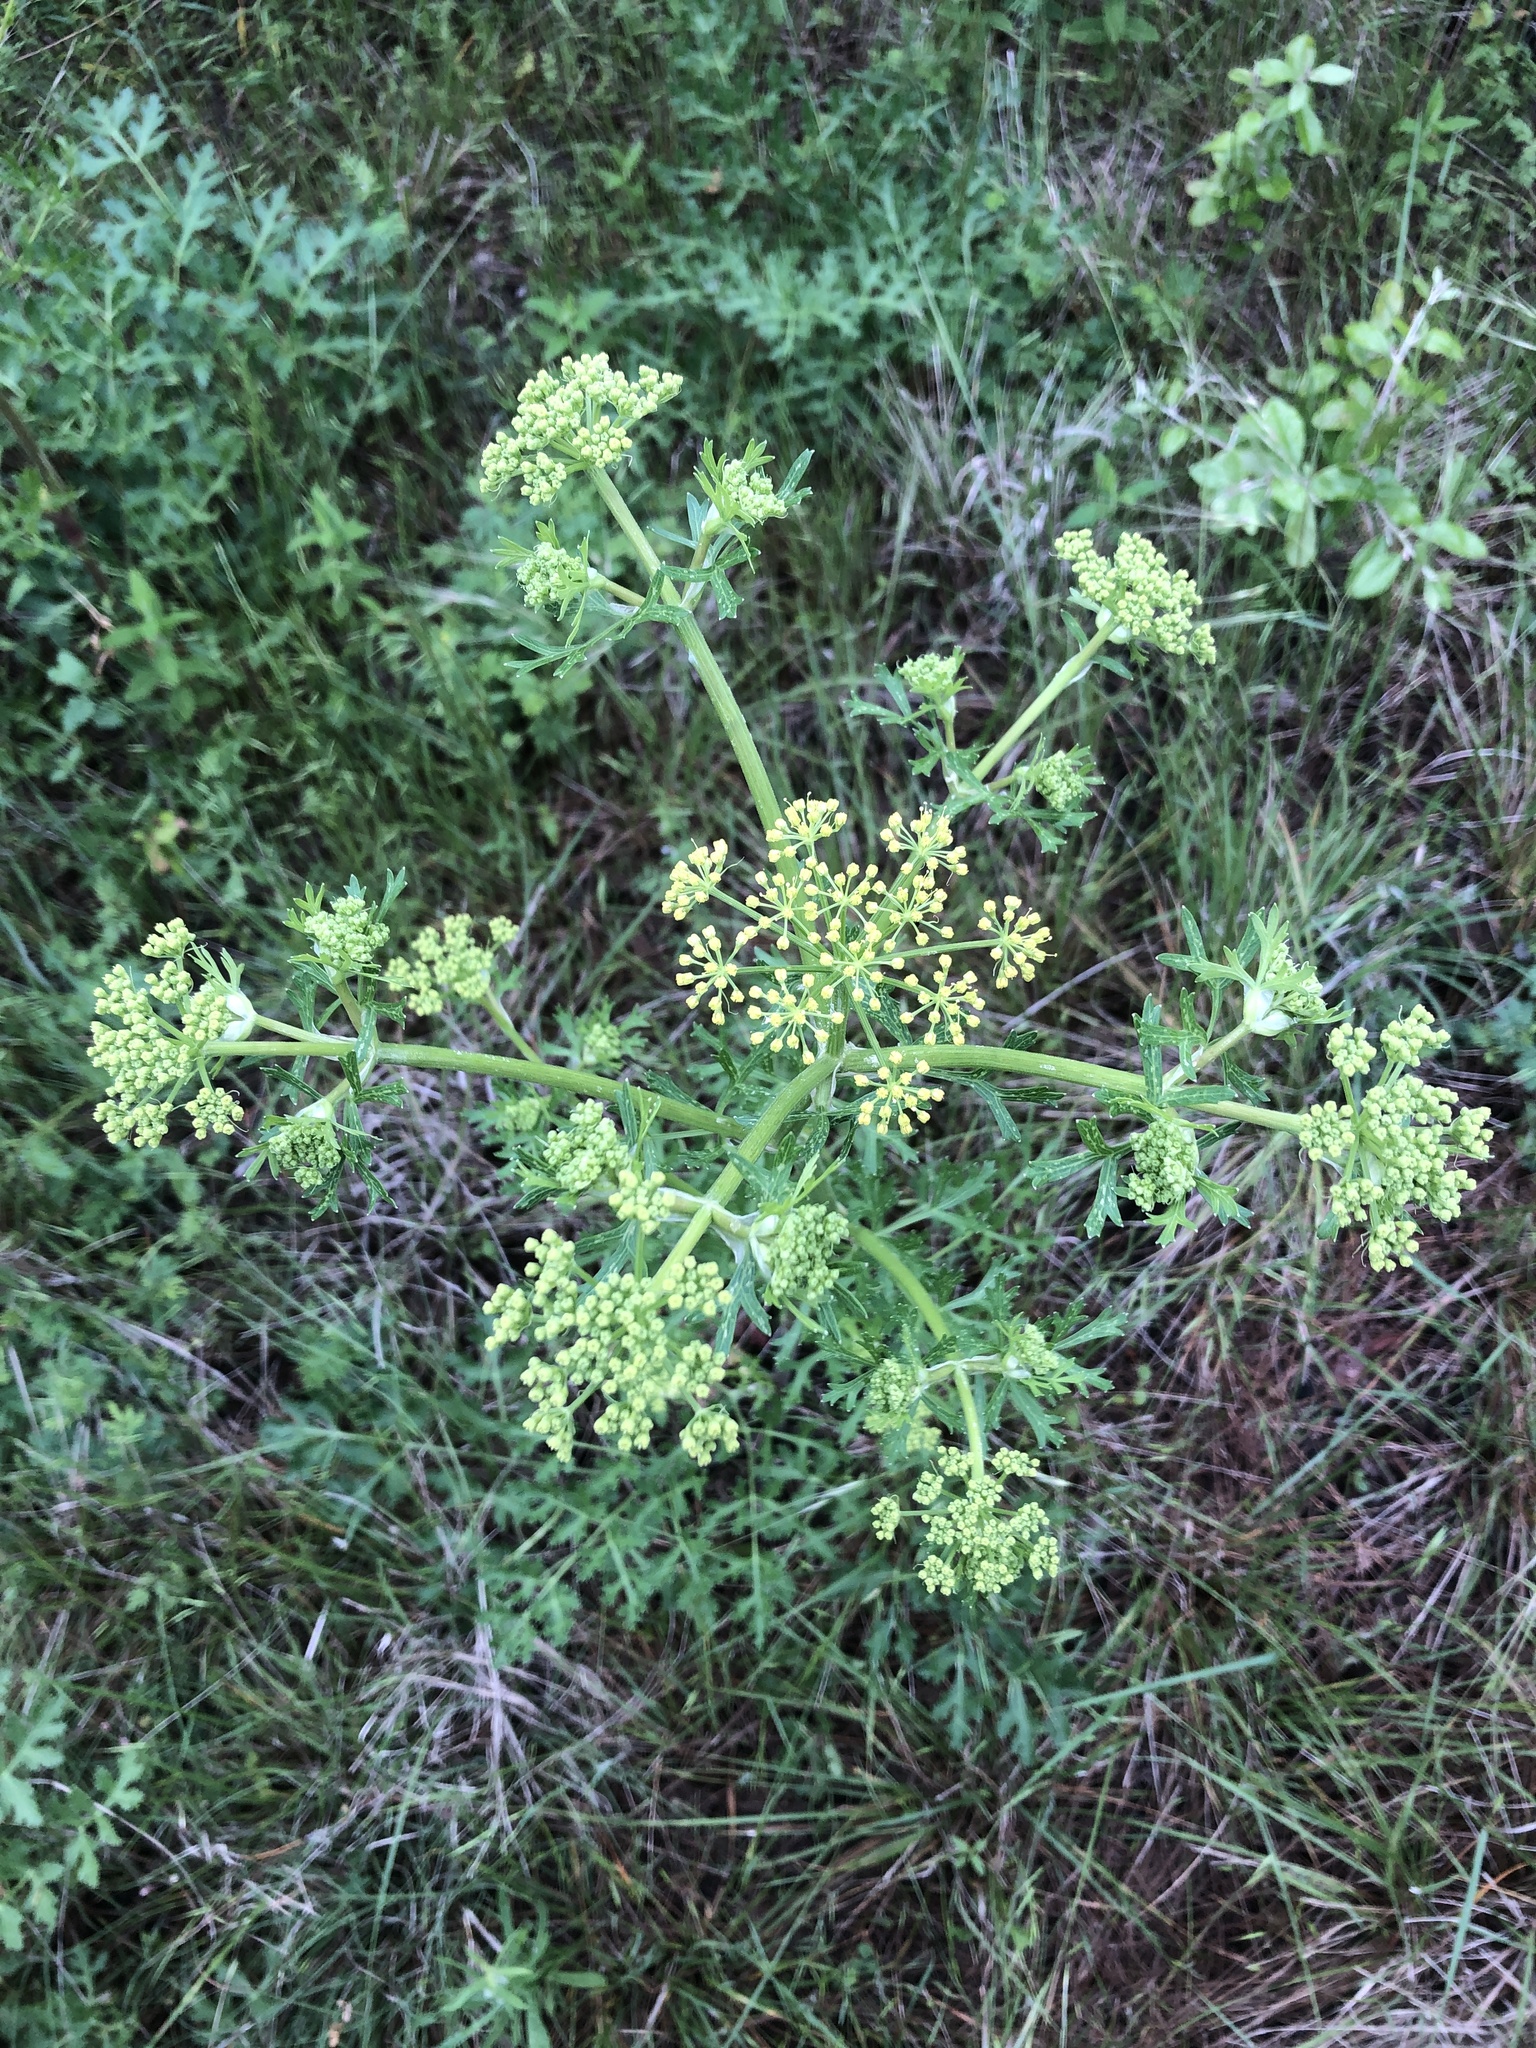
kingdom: Plantae
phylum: Tracheophyta
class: Magnoliopsida
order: Apiales
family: Apiaceae
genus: Polytaenia
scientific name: Polytaenia texana
